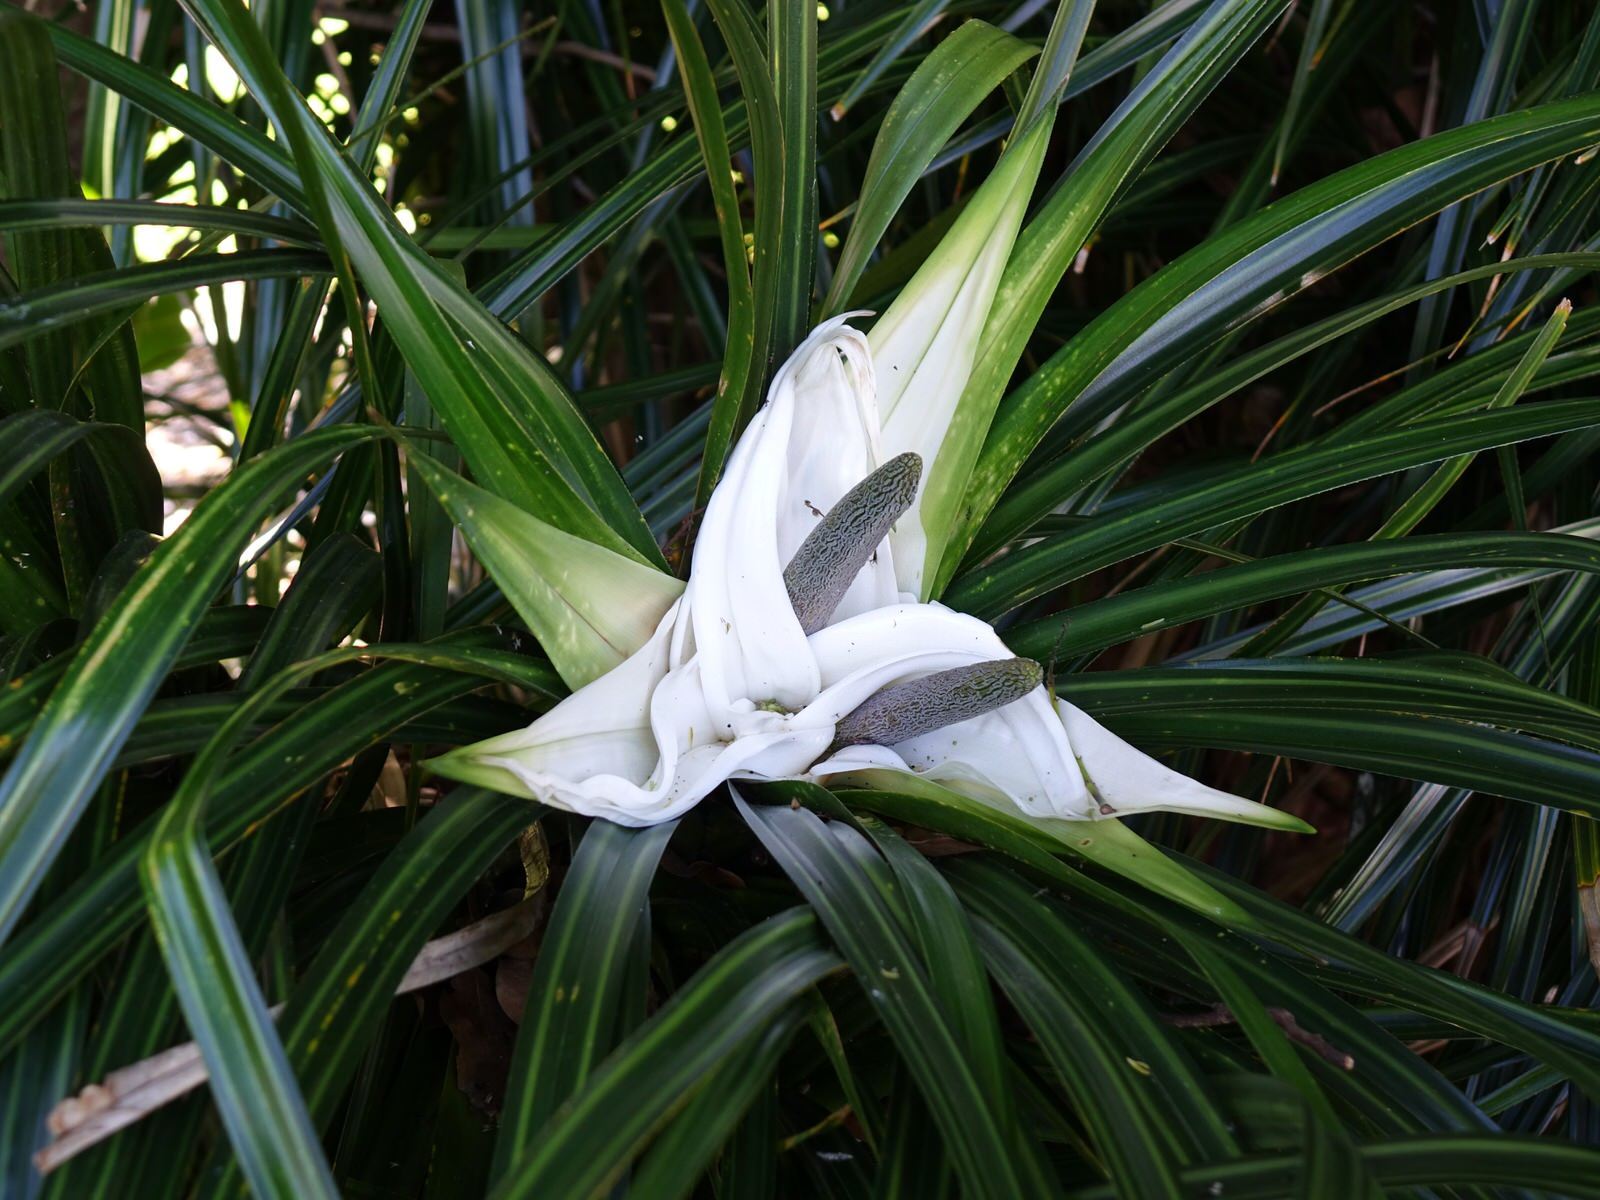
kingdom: Plantae
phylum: Tracheophyta
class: Liliopsida
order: Pandanales
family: Pandanaceae
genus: Freycinetia
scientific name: Freycinetia banksii
